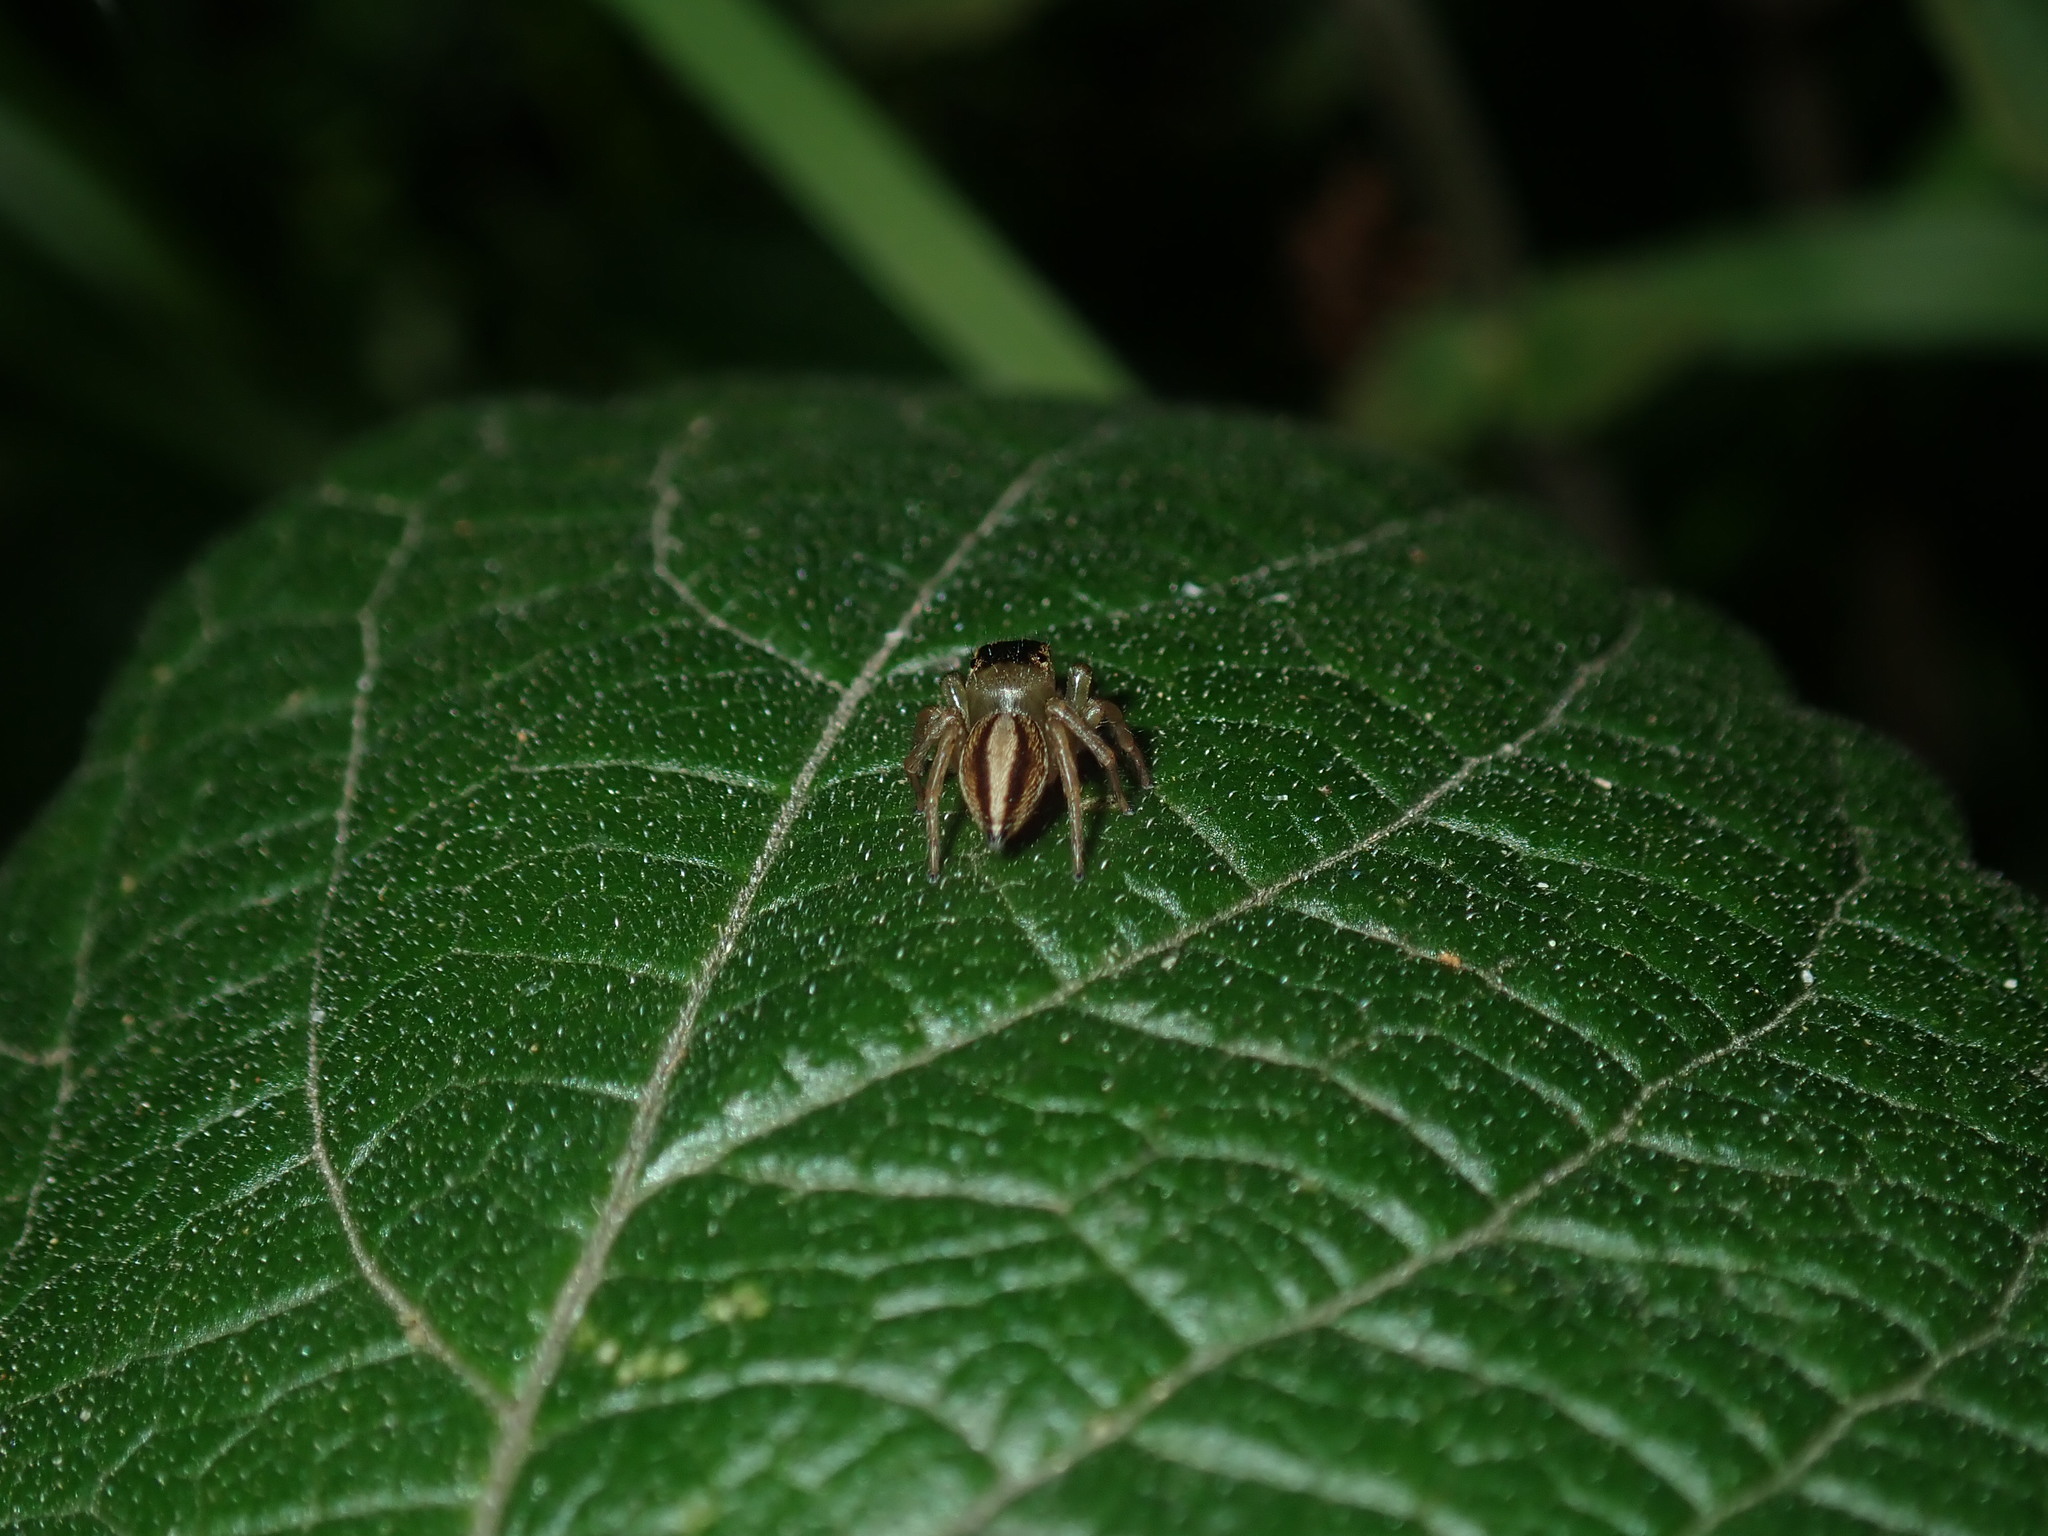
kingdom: Animalia
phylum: Arthropoda
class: Arachnida
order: Araneae
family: Salticidae
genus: Maratus
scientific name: Maratus scutulatus
